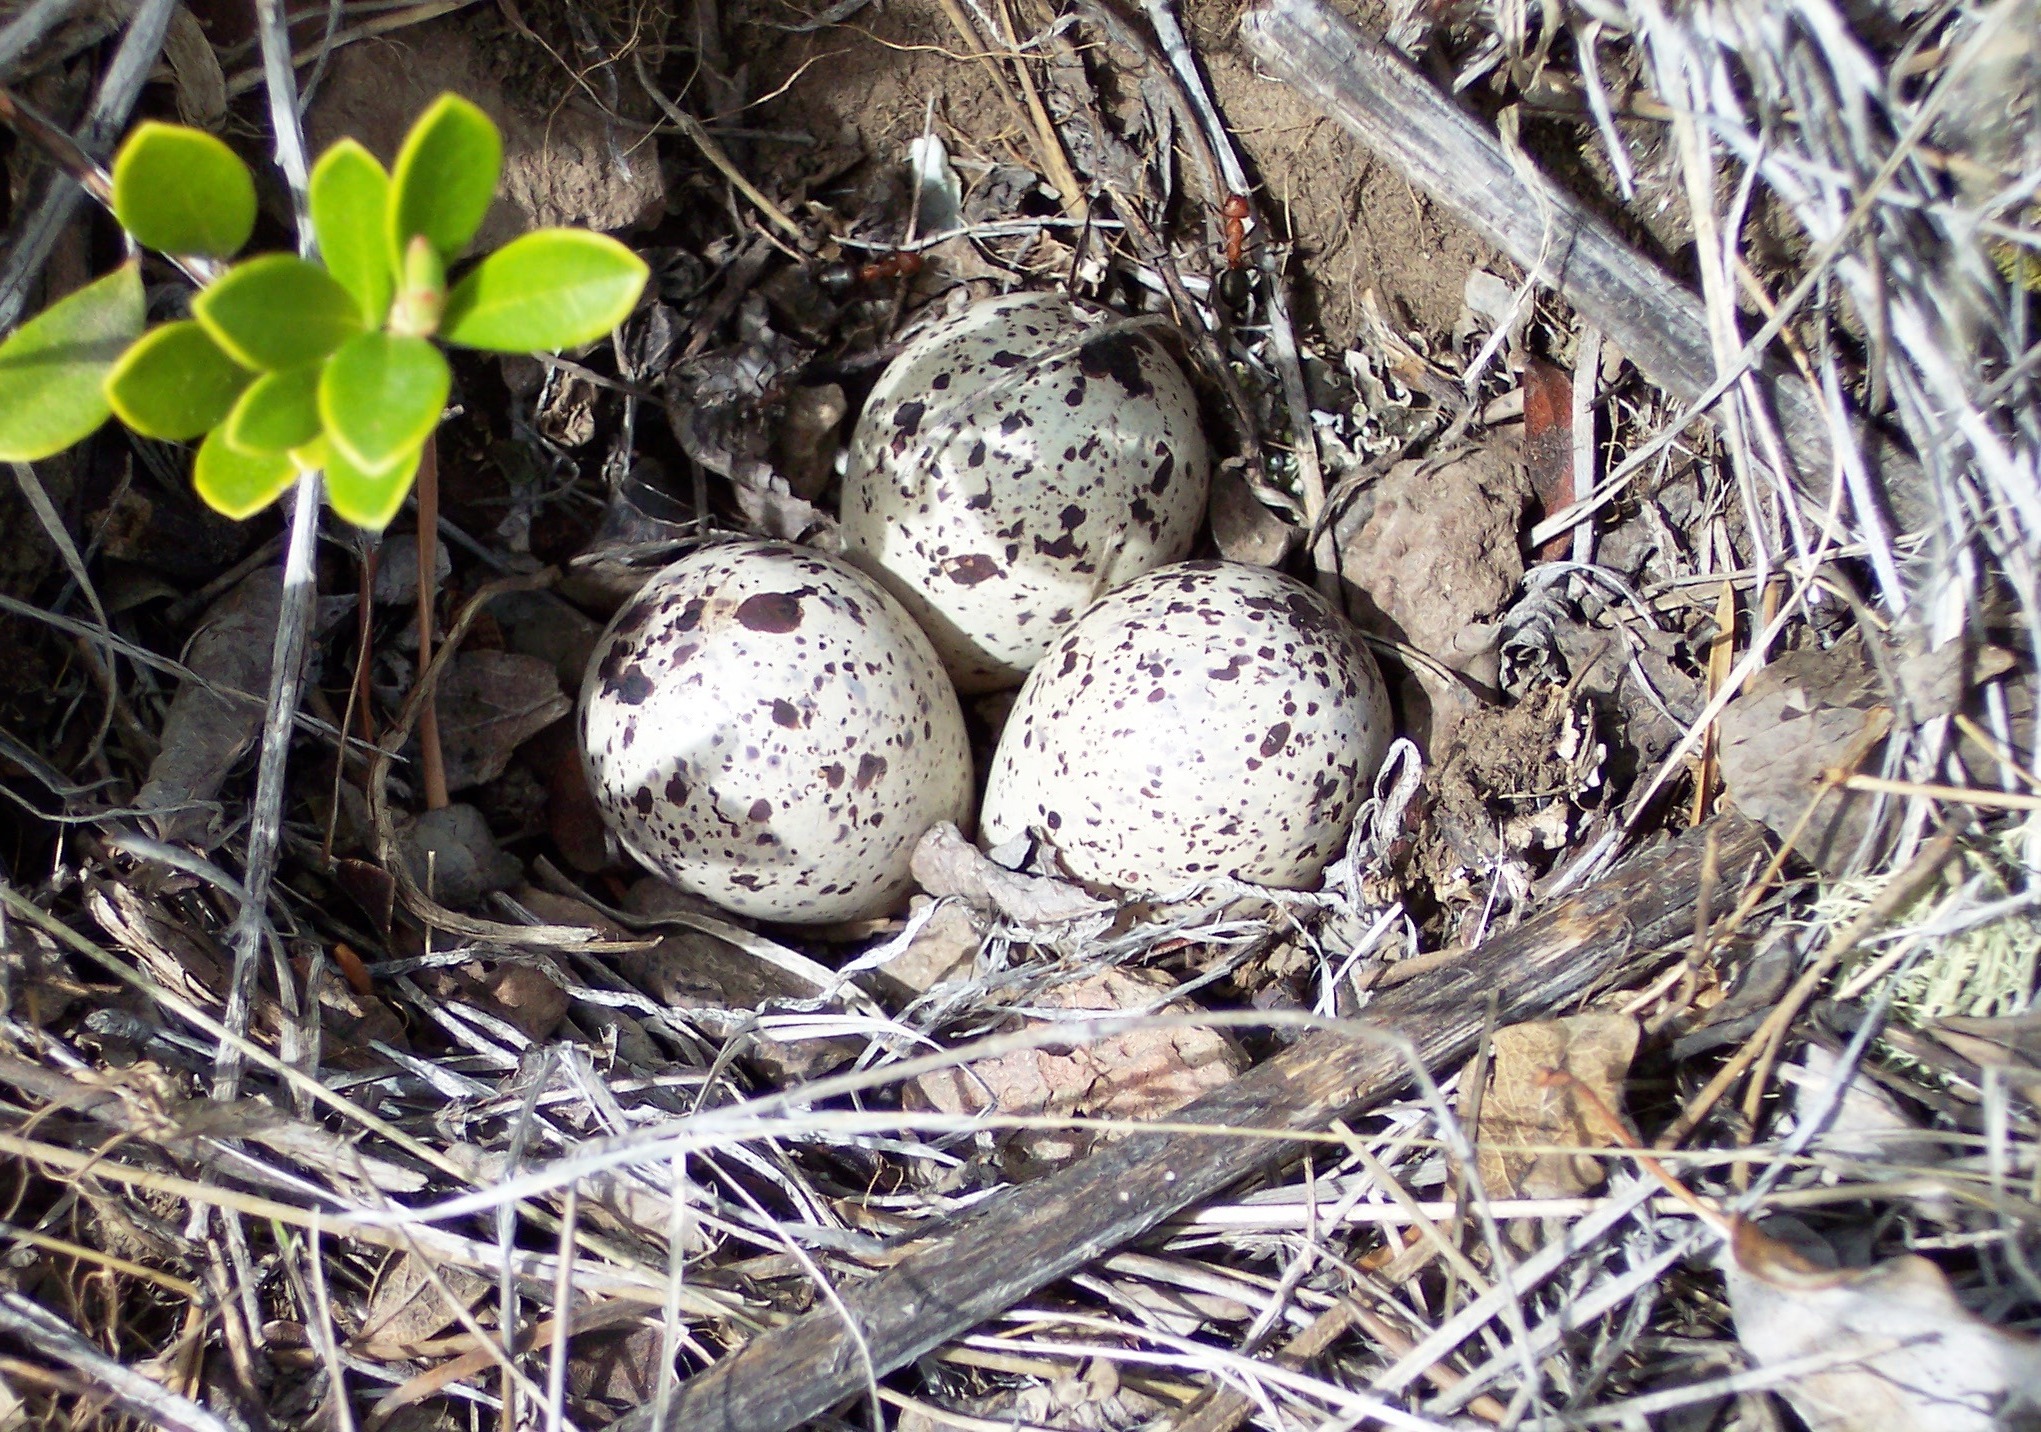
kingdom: Animalia
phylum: Chordata
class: Aves
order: Charadriiformes
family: Scolopacidae
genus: Actitis
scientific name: Actitis macularius
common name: Spotted sandpiper
